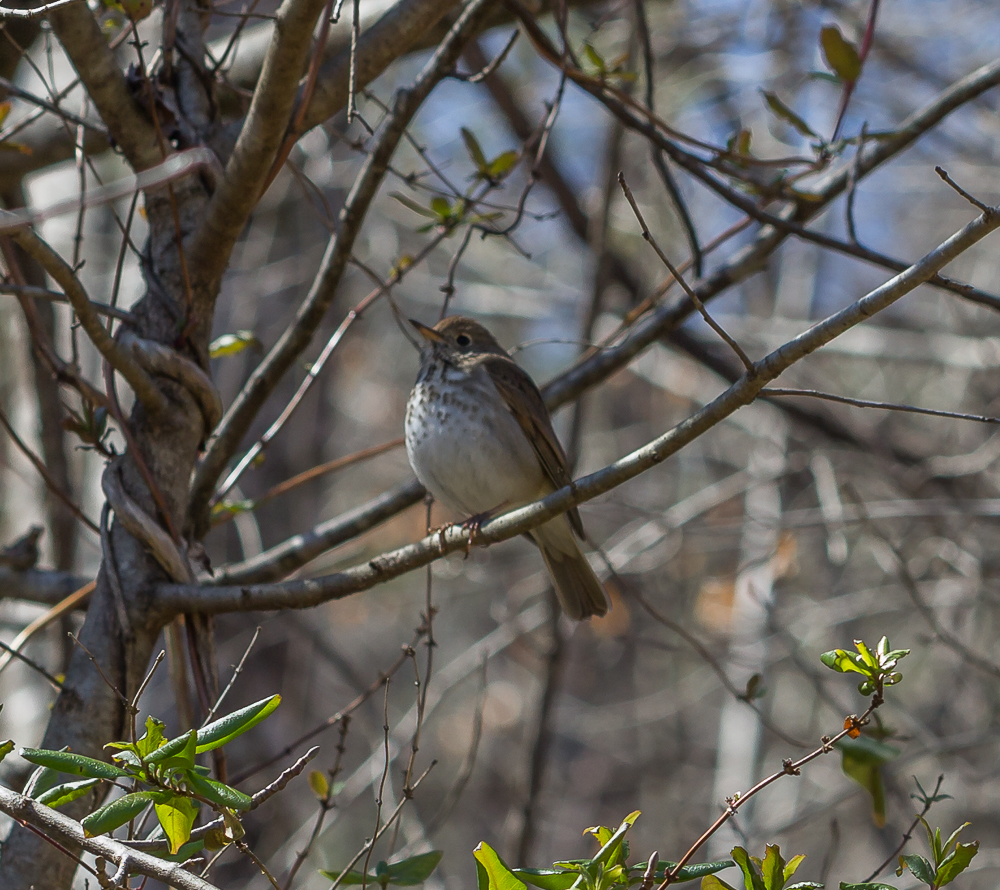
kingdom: Animalia
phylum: Chordata
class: Aves
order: Passeriformes
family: Turdidae
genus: Catharus
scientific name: Catharus guttatus
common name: Hermit thrush
